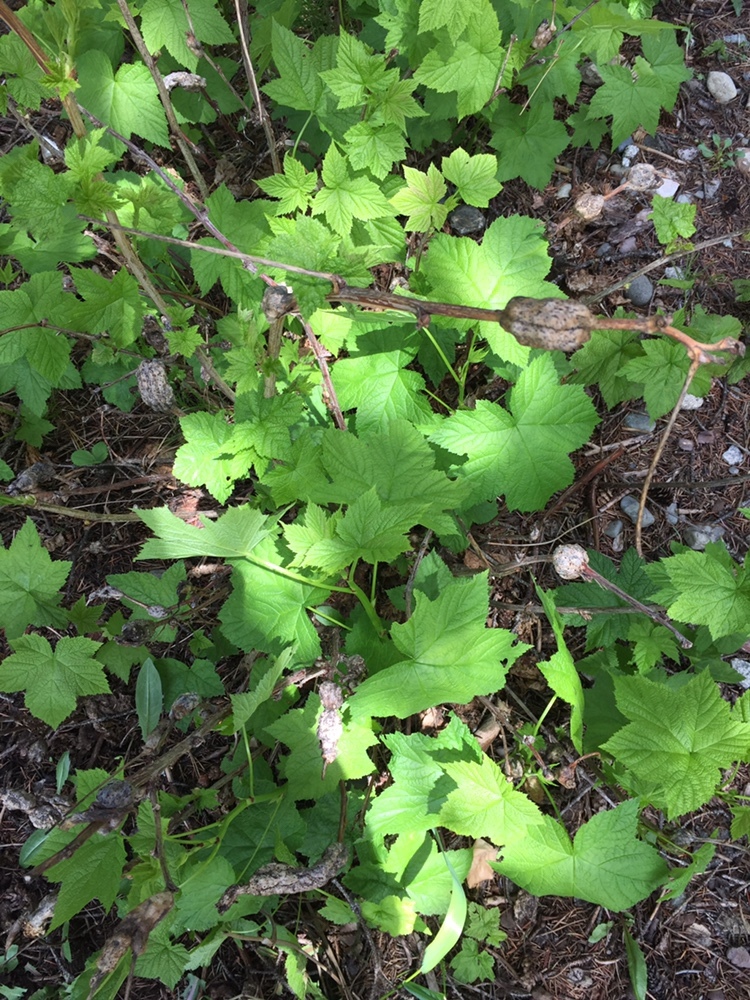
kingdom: Plantae
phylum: Tracheophyta
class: Magnoliopsida
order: Rosales
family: Rosaceae
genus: Rubus
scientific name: Rubus parviflorus
